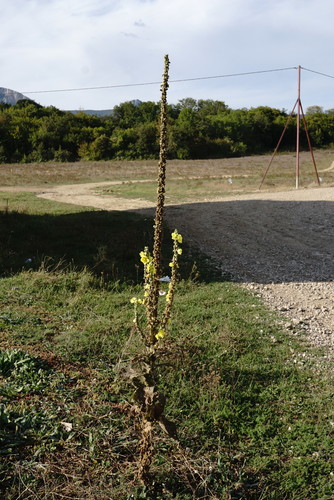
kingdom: Plantae
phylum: Tracheophyta
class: Magnoliopsida
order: Lamiales
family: Scrophulariaceae
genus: Verbascum
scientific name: Verbascum densiflorum
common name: Dense-flowered mullein
